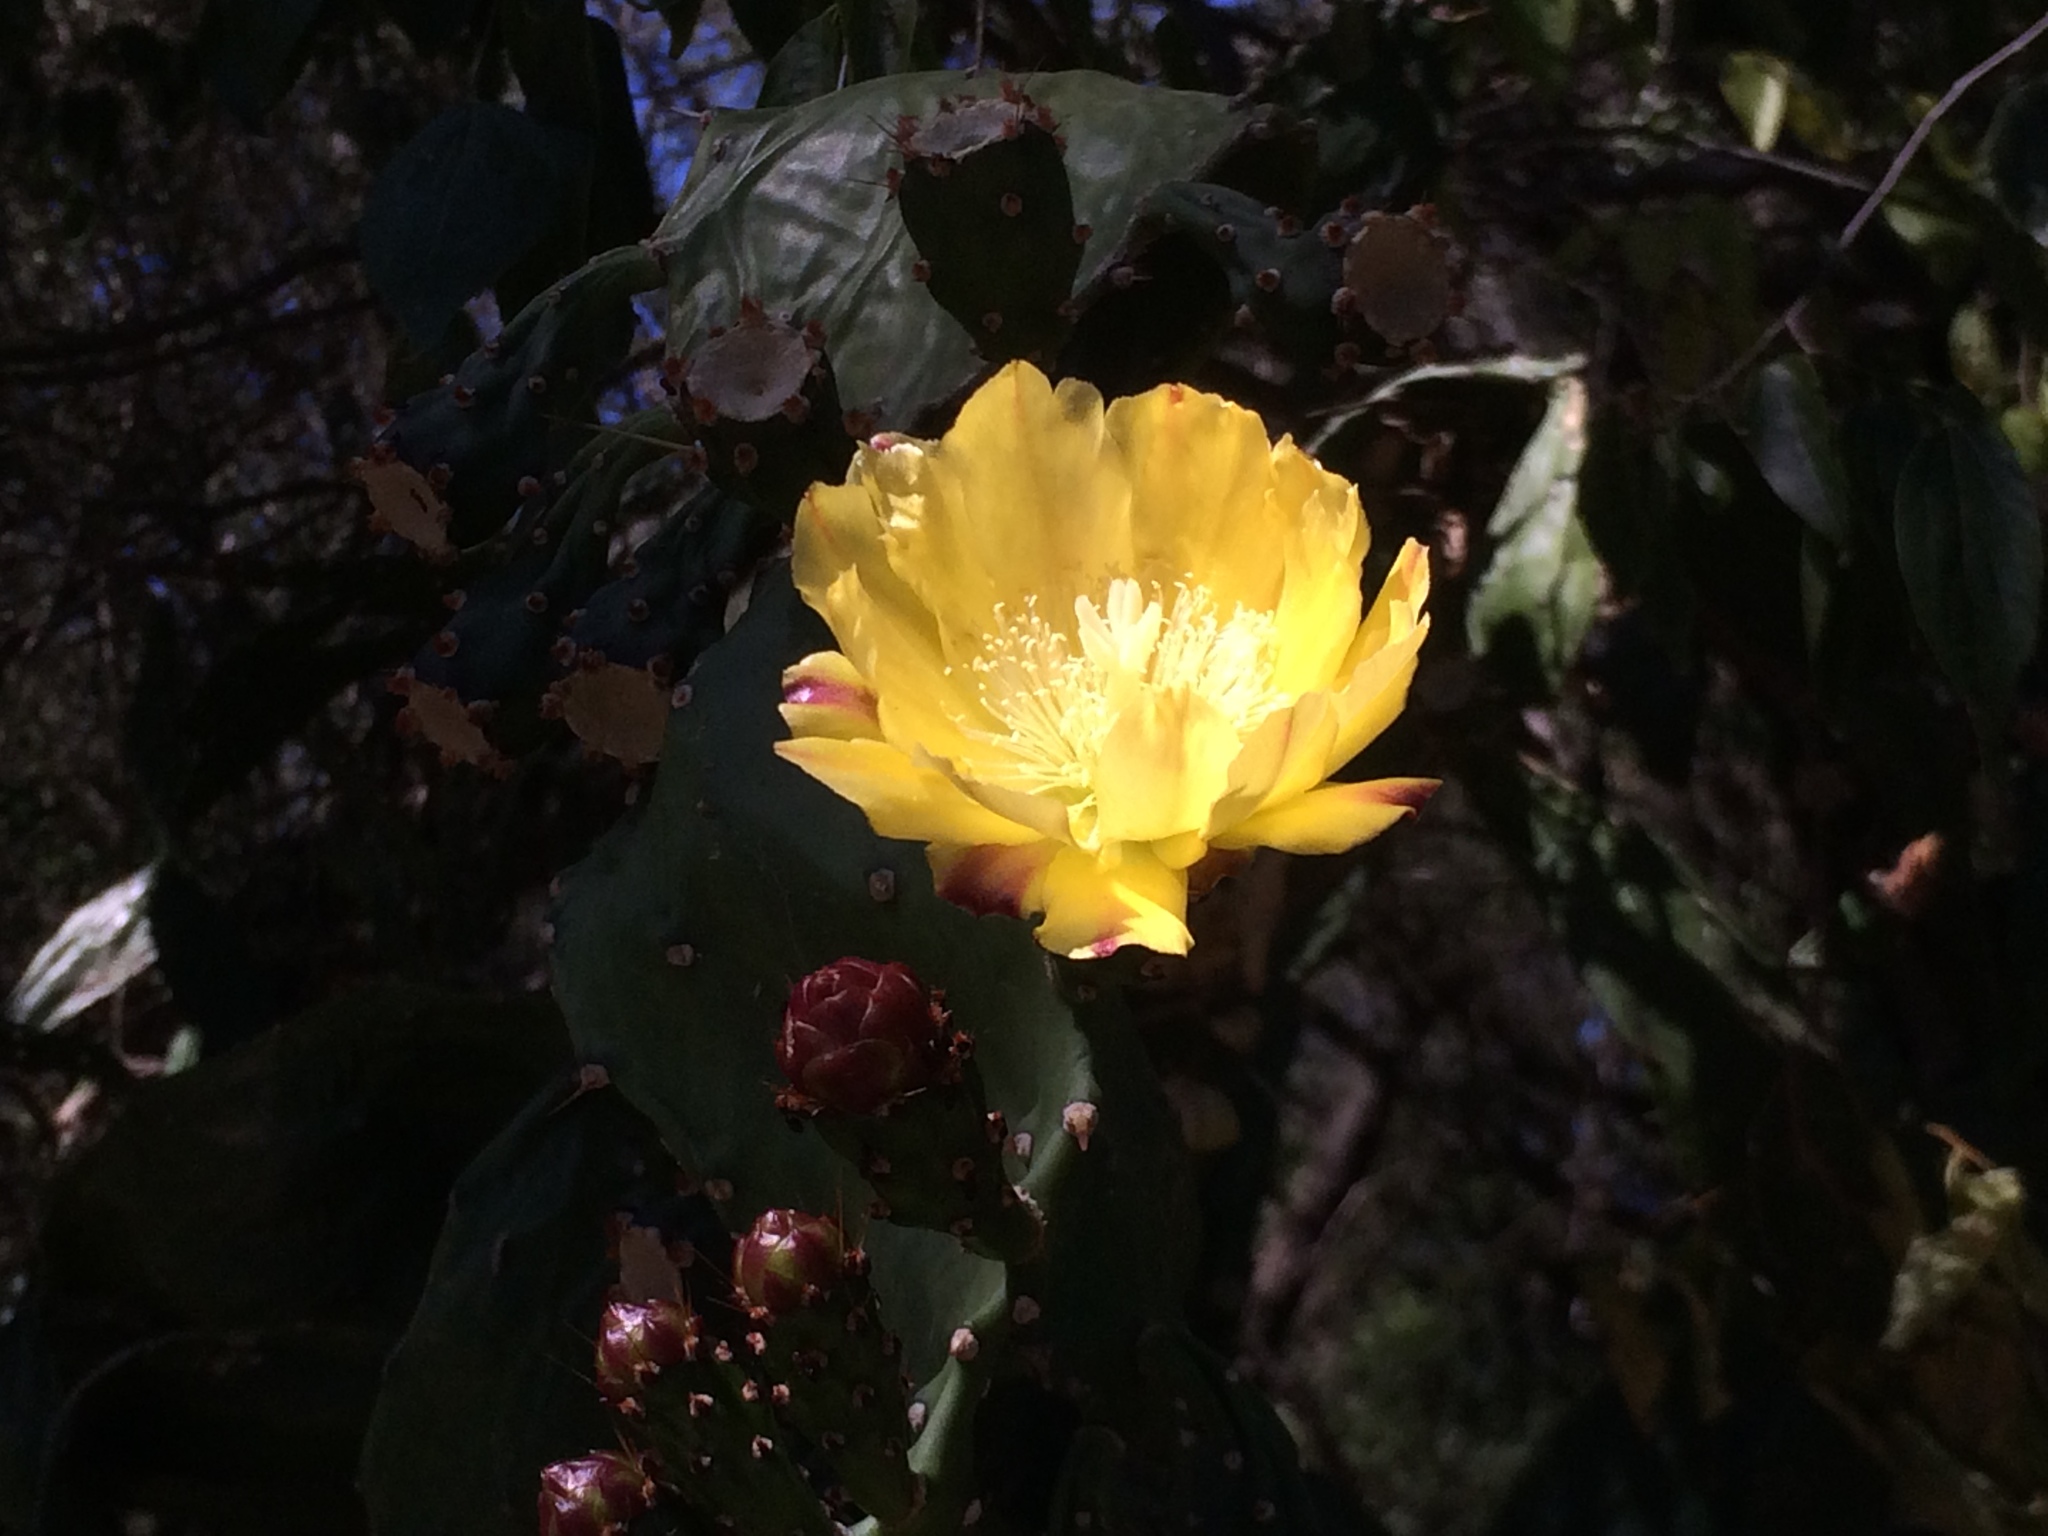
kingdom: Plantae
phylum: Tracheophyta
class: Magnoliopsida
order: Caryophyllales
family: Cactaceae
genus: Opuntia
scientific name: Opuntia monacantha
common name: Common pricklypear
